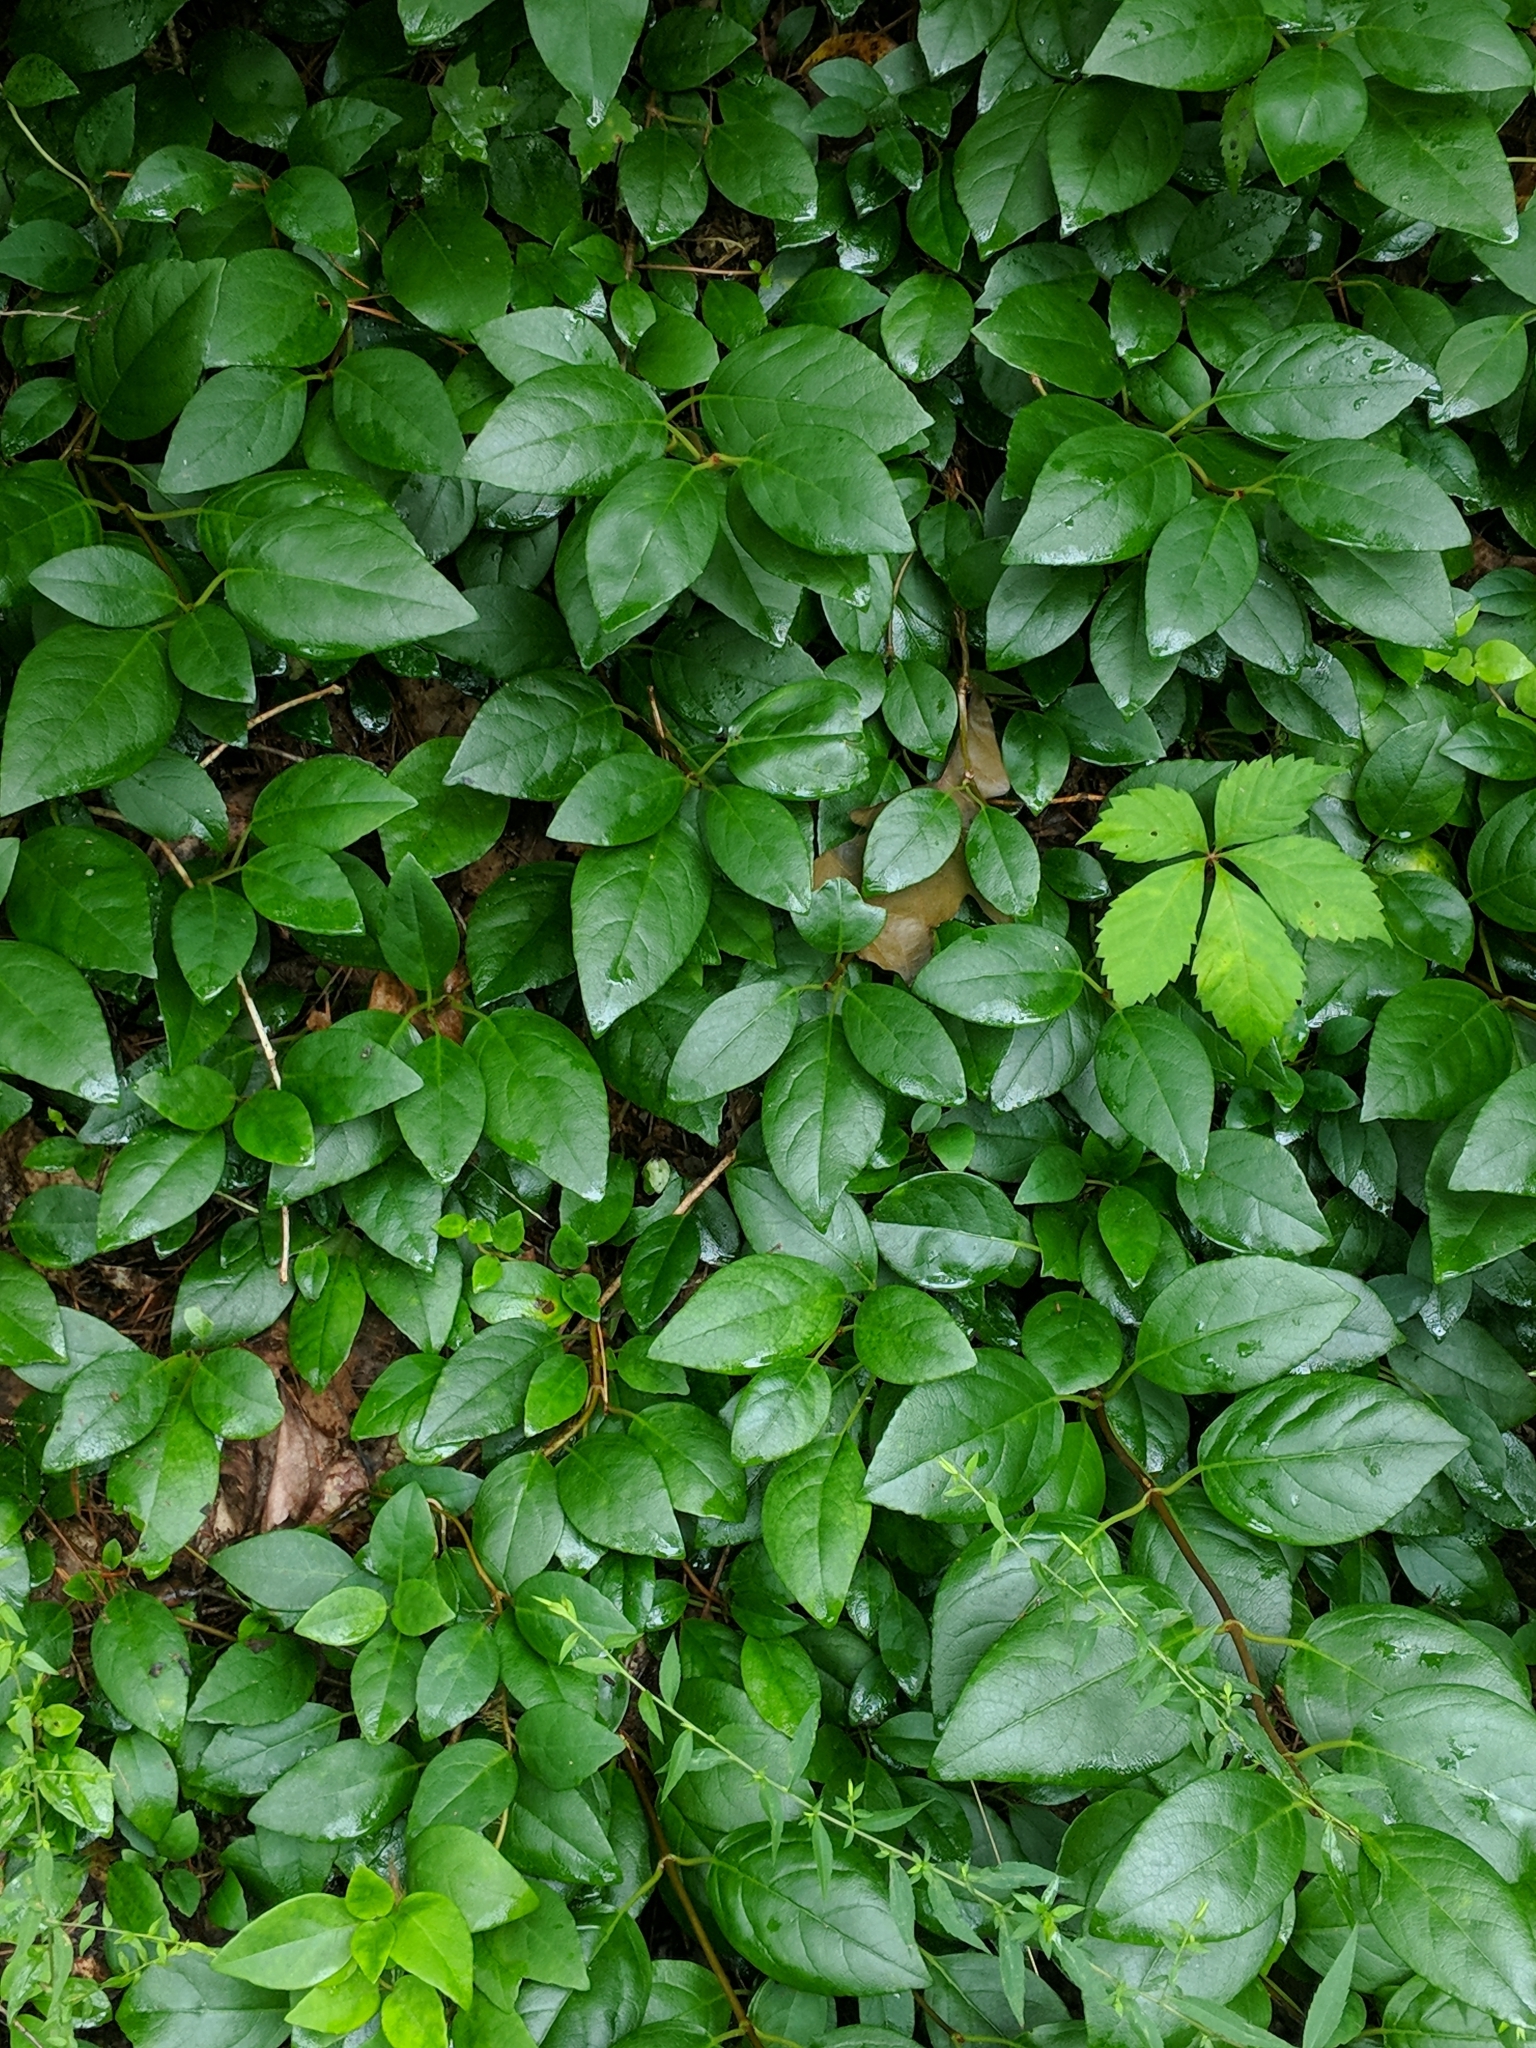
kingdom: Plantae
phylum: Tracheophyta
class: Magnoliopsida
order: Cornales
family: Hydrangeaceae
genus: Hydrangea
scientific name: Hydrangea barbara
